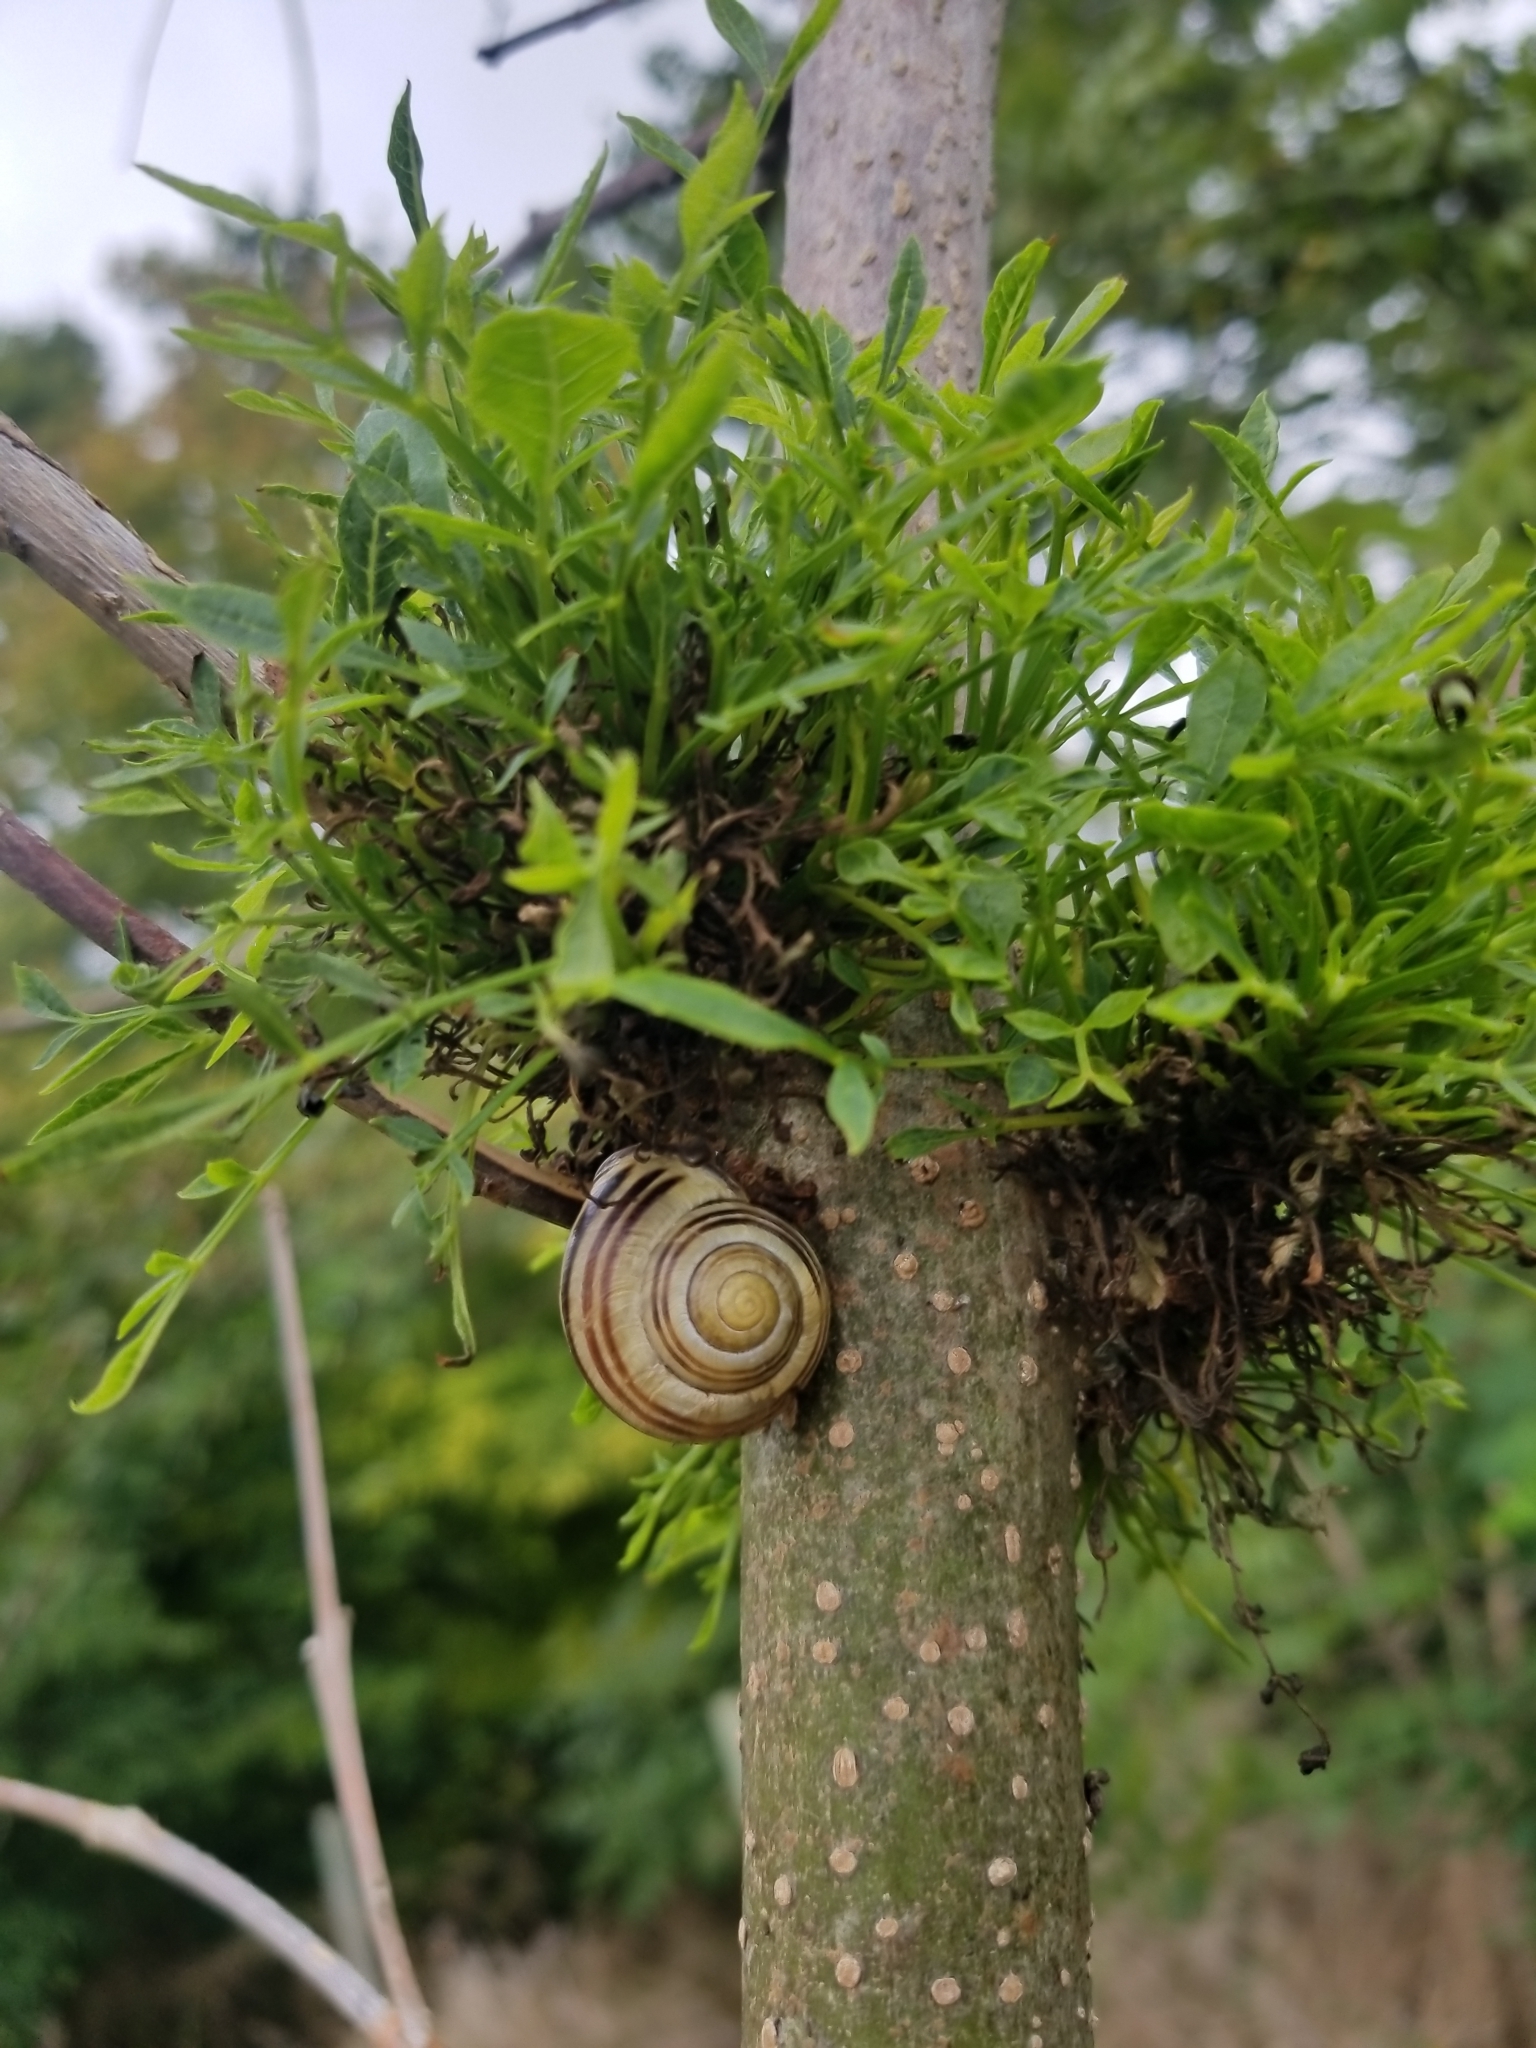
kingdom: Animalia
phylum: Mollusca
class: Gastropoda
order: Stylommatophora
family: Helicidae
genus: Cepaea
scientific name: Cepaea nemoralis
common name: Grovesnail
